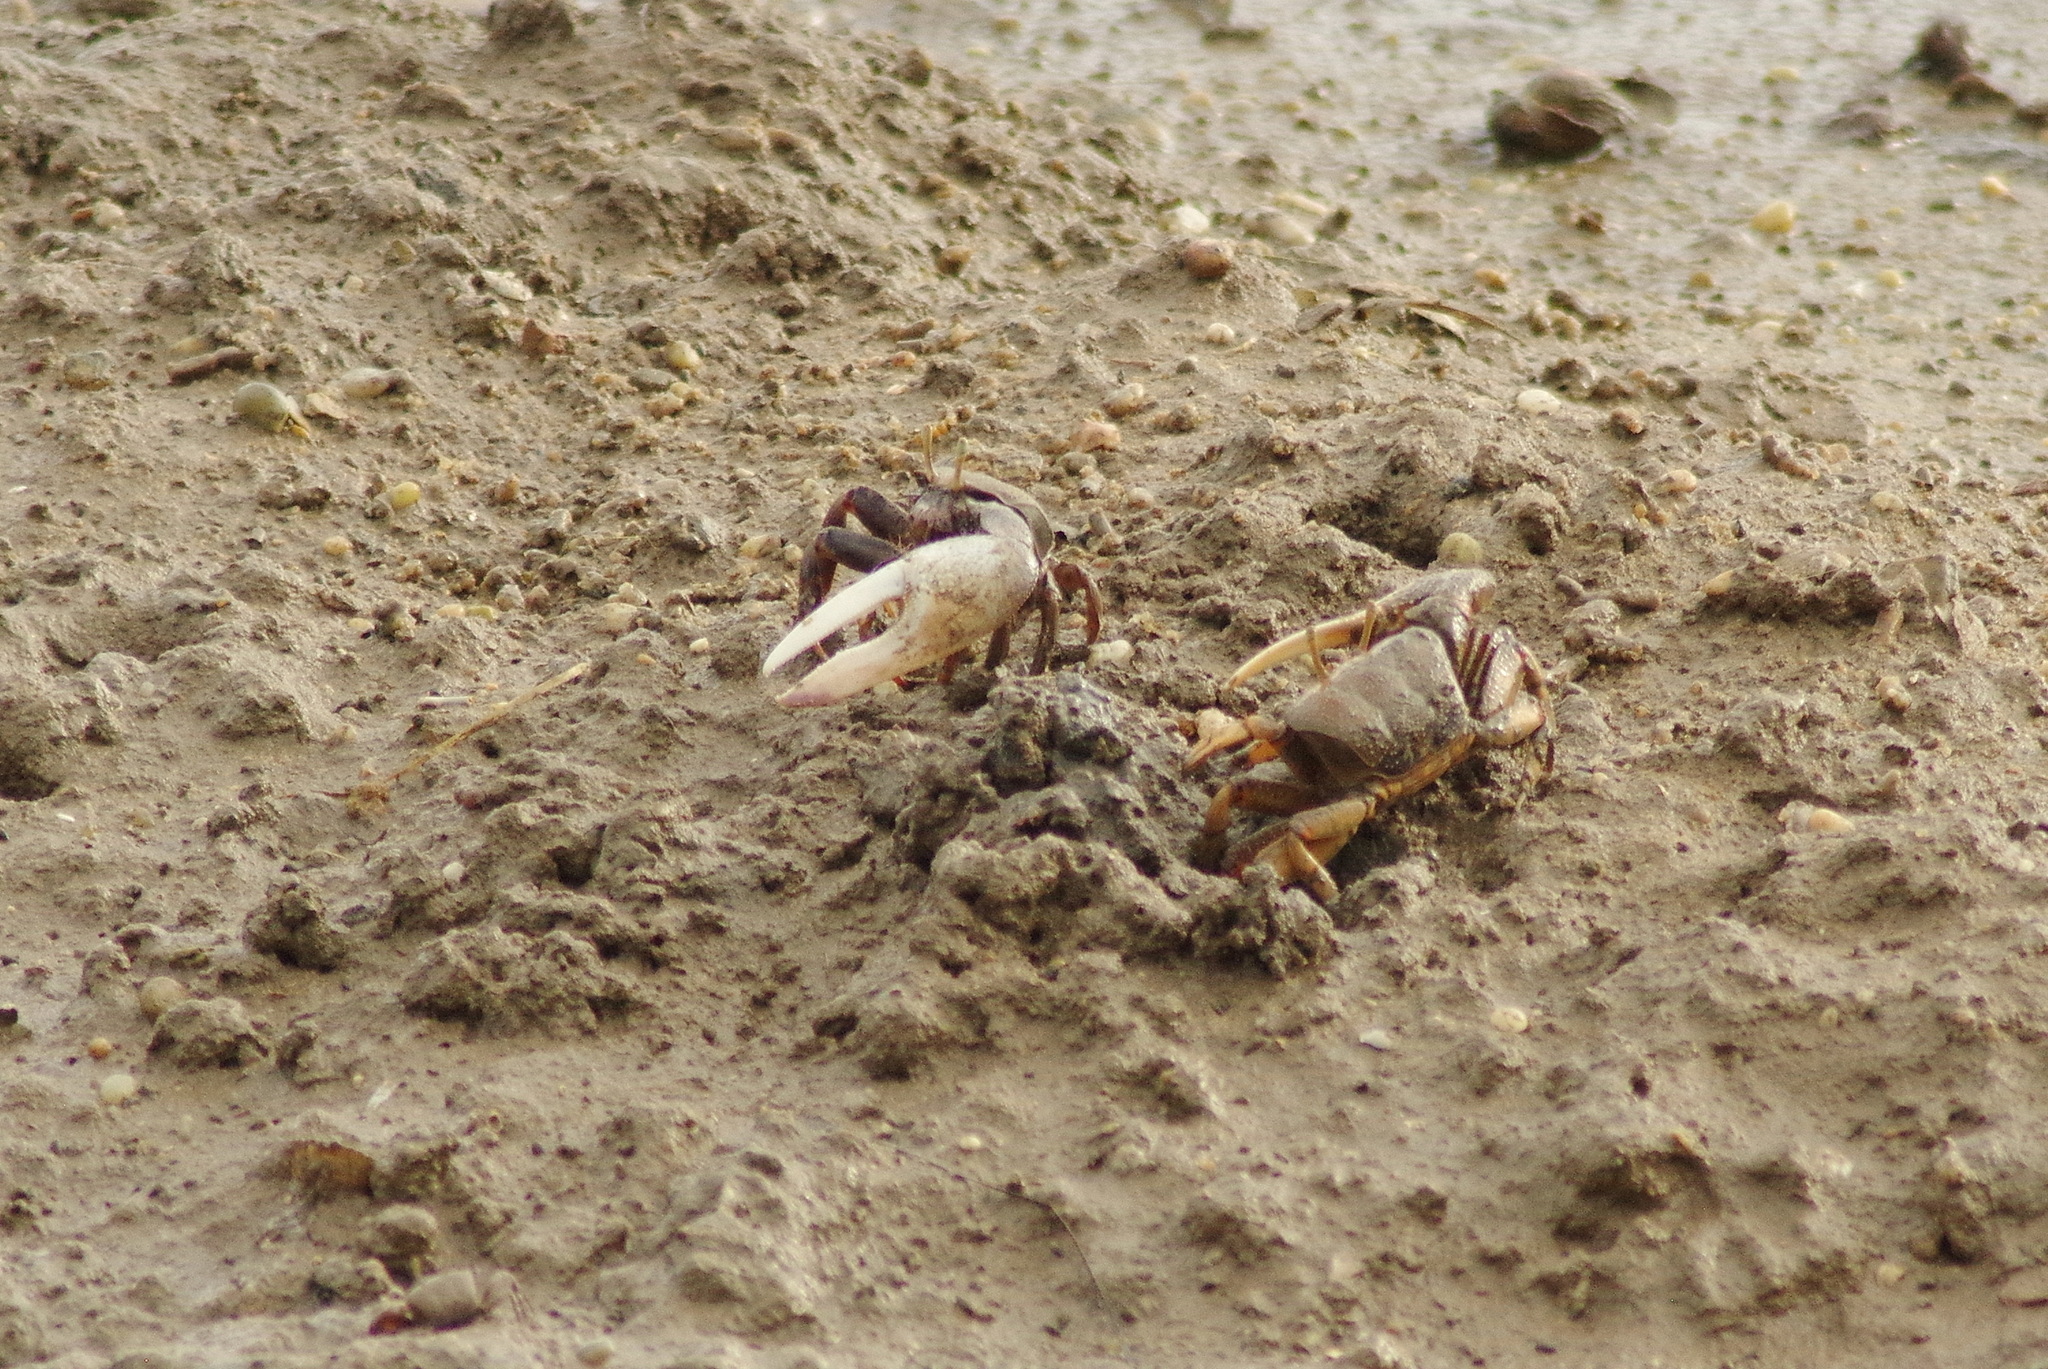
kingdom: Animalia
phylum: Arthropoda
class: Malacostraca
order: Decapoda
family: Ocypodidae
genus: Afruca
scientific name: Afruca tangeri
